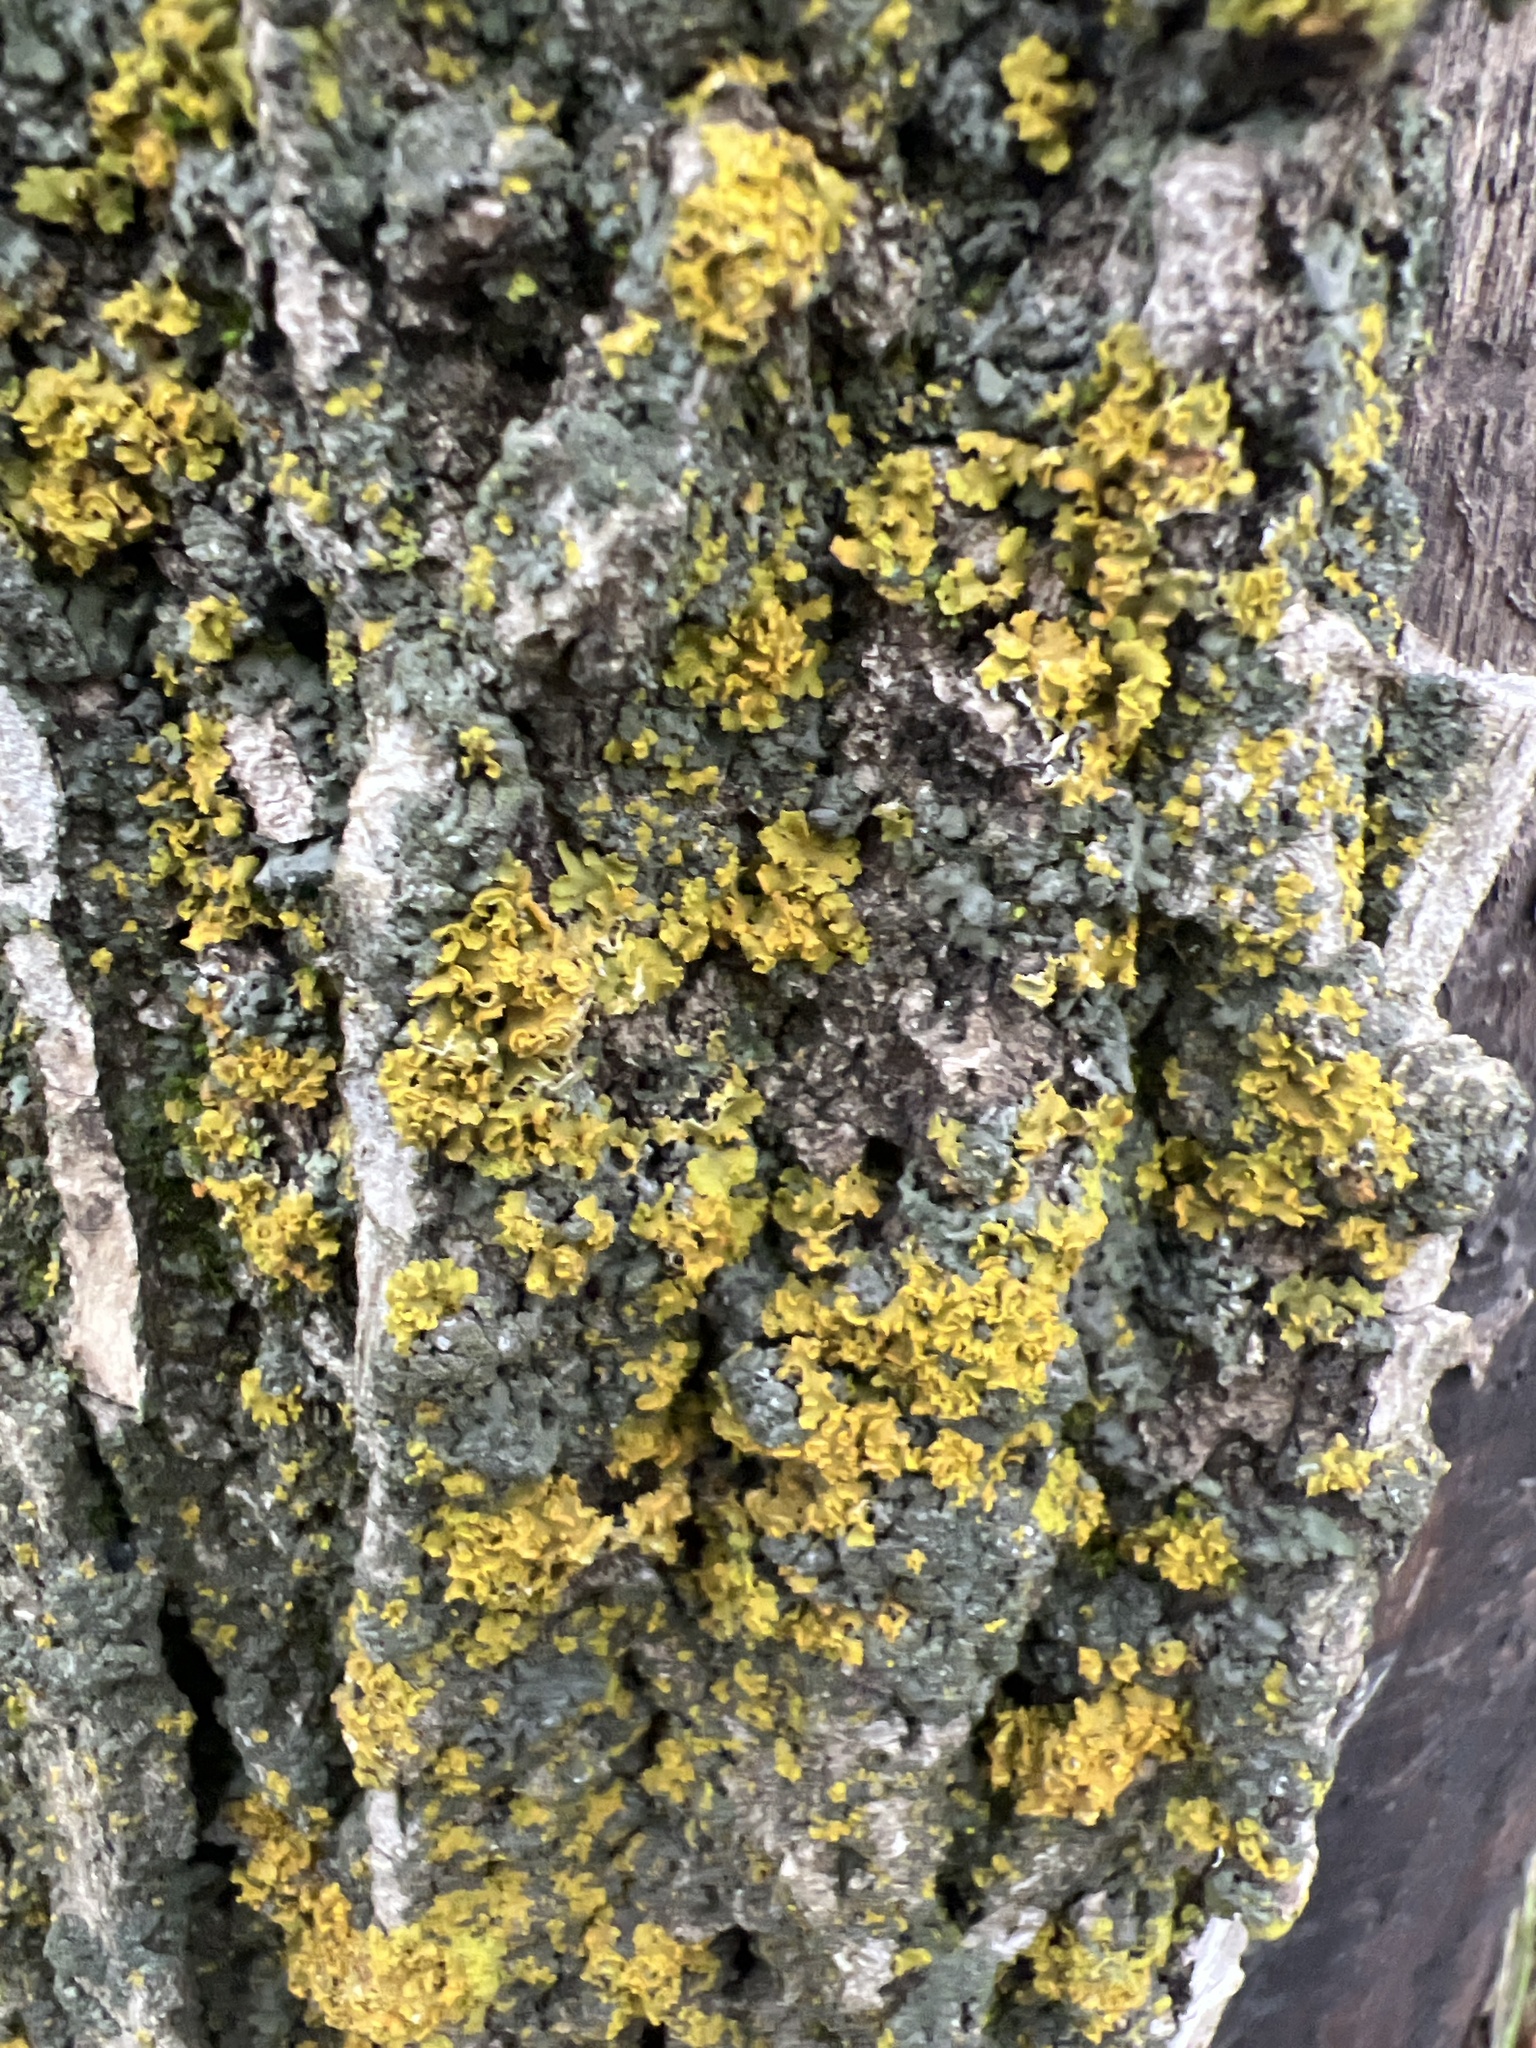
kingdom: Fungi
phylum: Ascomycota
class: Lecanoromycetes
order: Teloschistales
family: Teloschistaceae
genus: Oxneria
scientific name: Oxneria fallax
